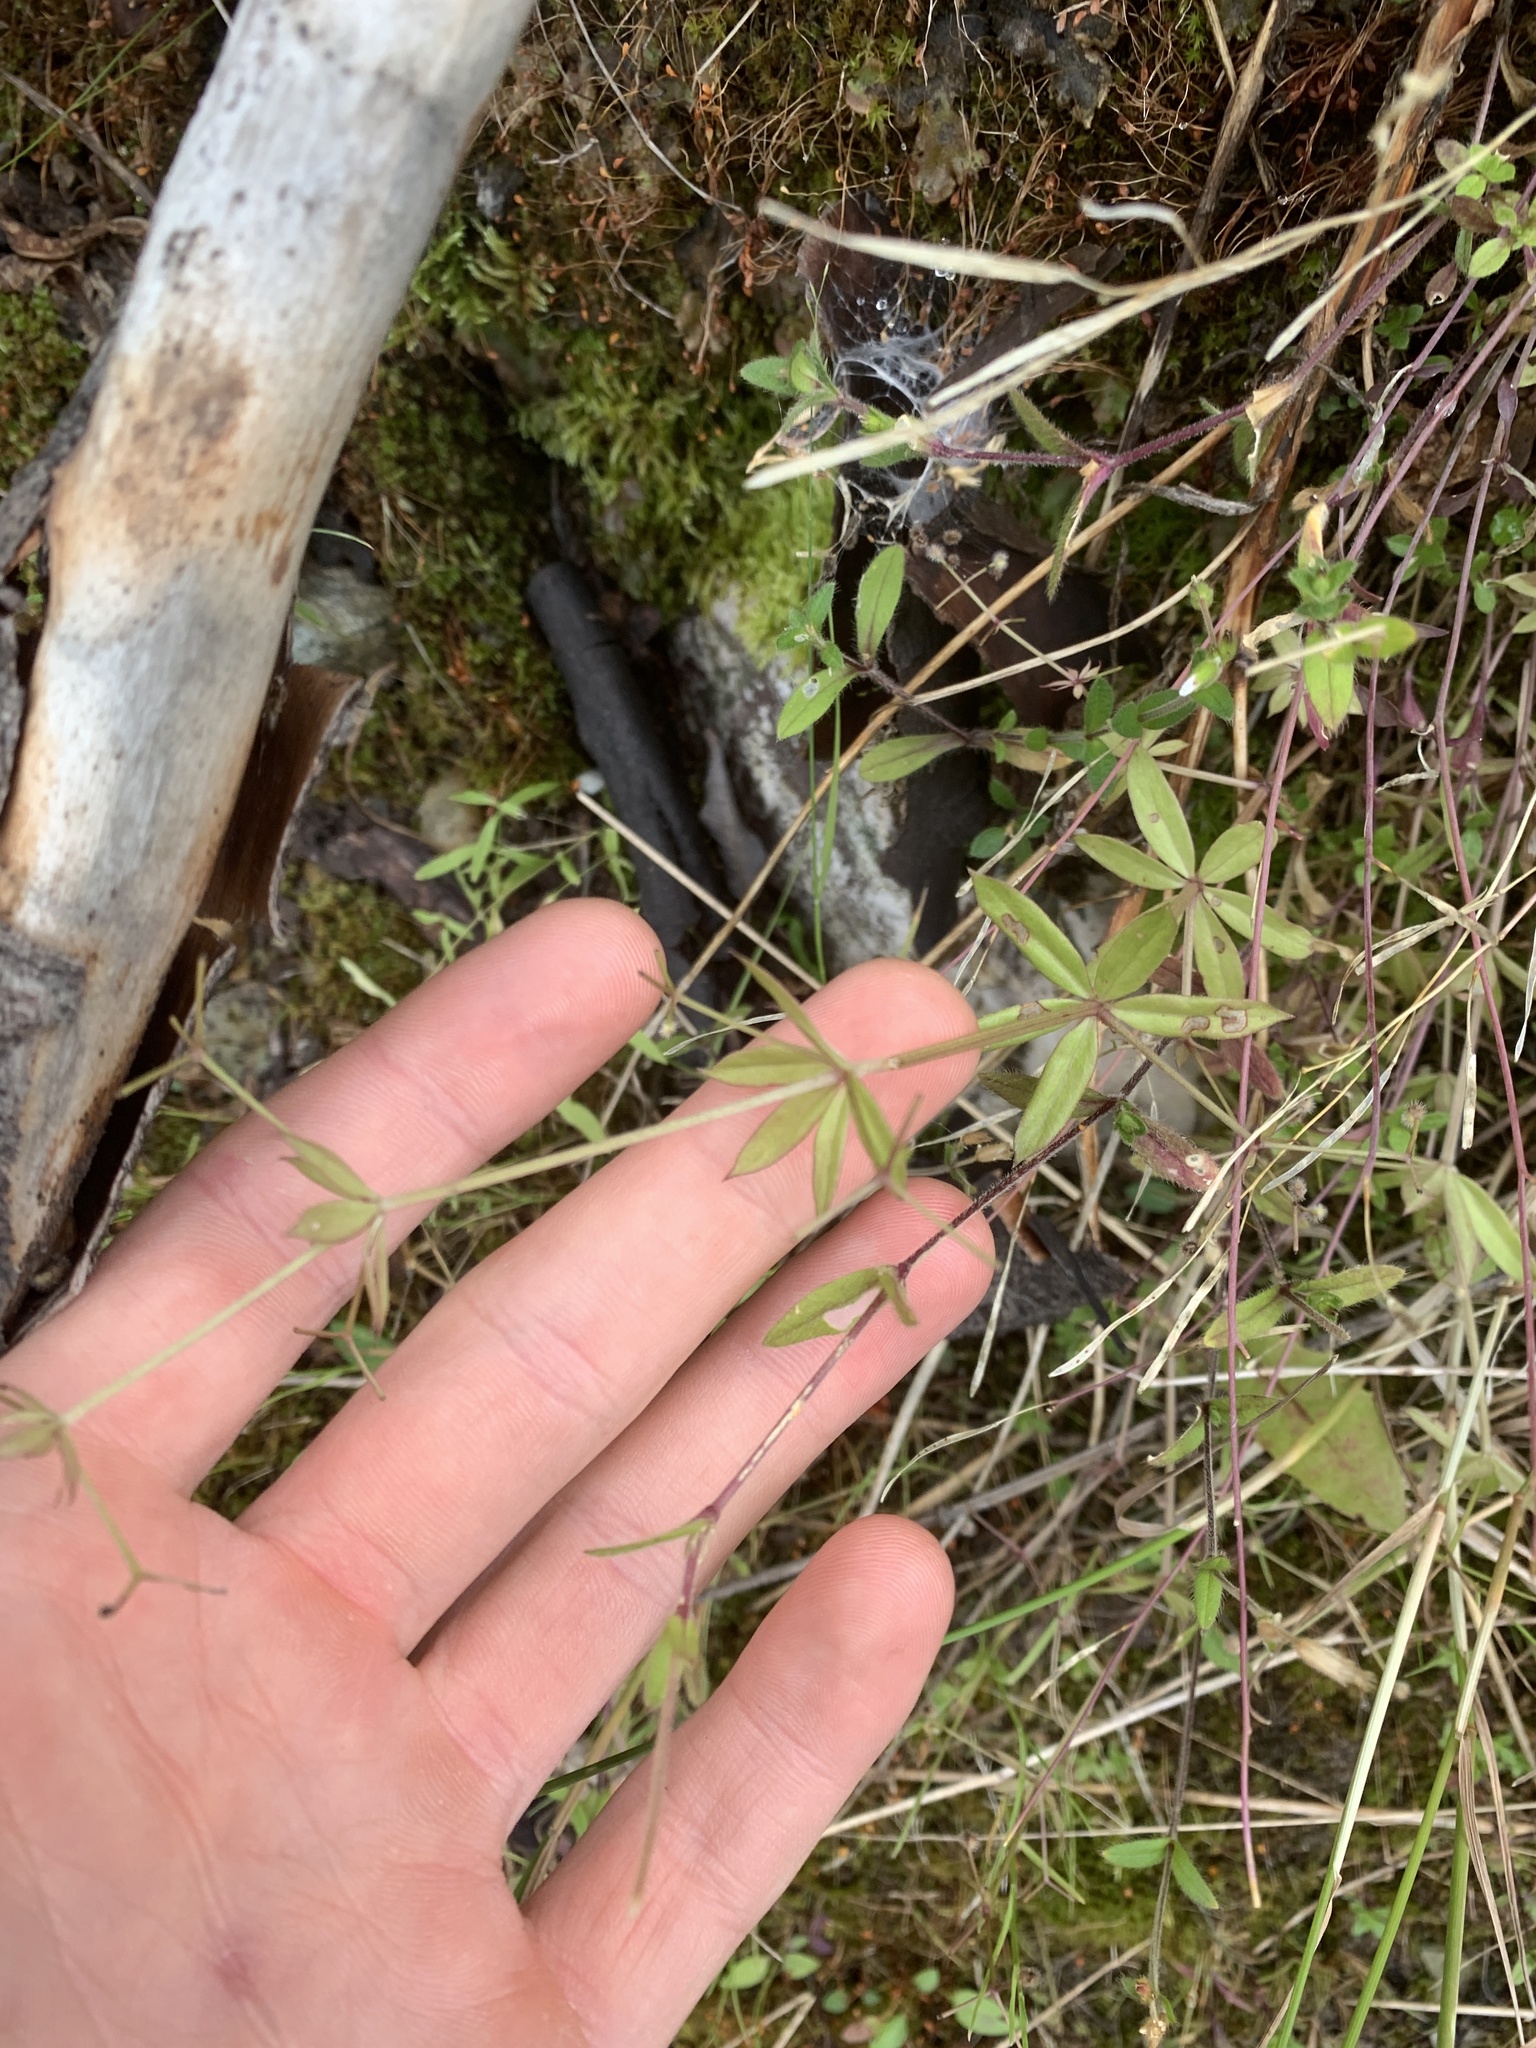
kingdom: Plantae
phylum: Tracheophyta
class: Magnoliopsida
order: Gentianales
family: Rubiaceae
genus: Galium
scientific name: Galium triflorum
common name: Fragrant bedstraw
